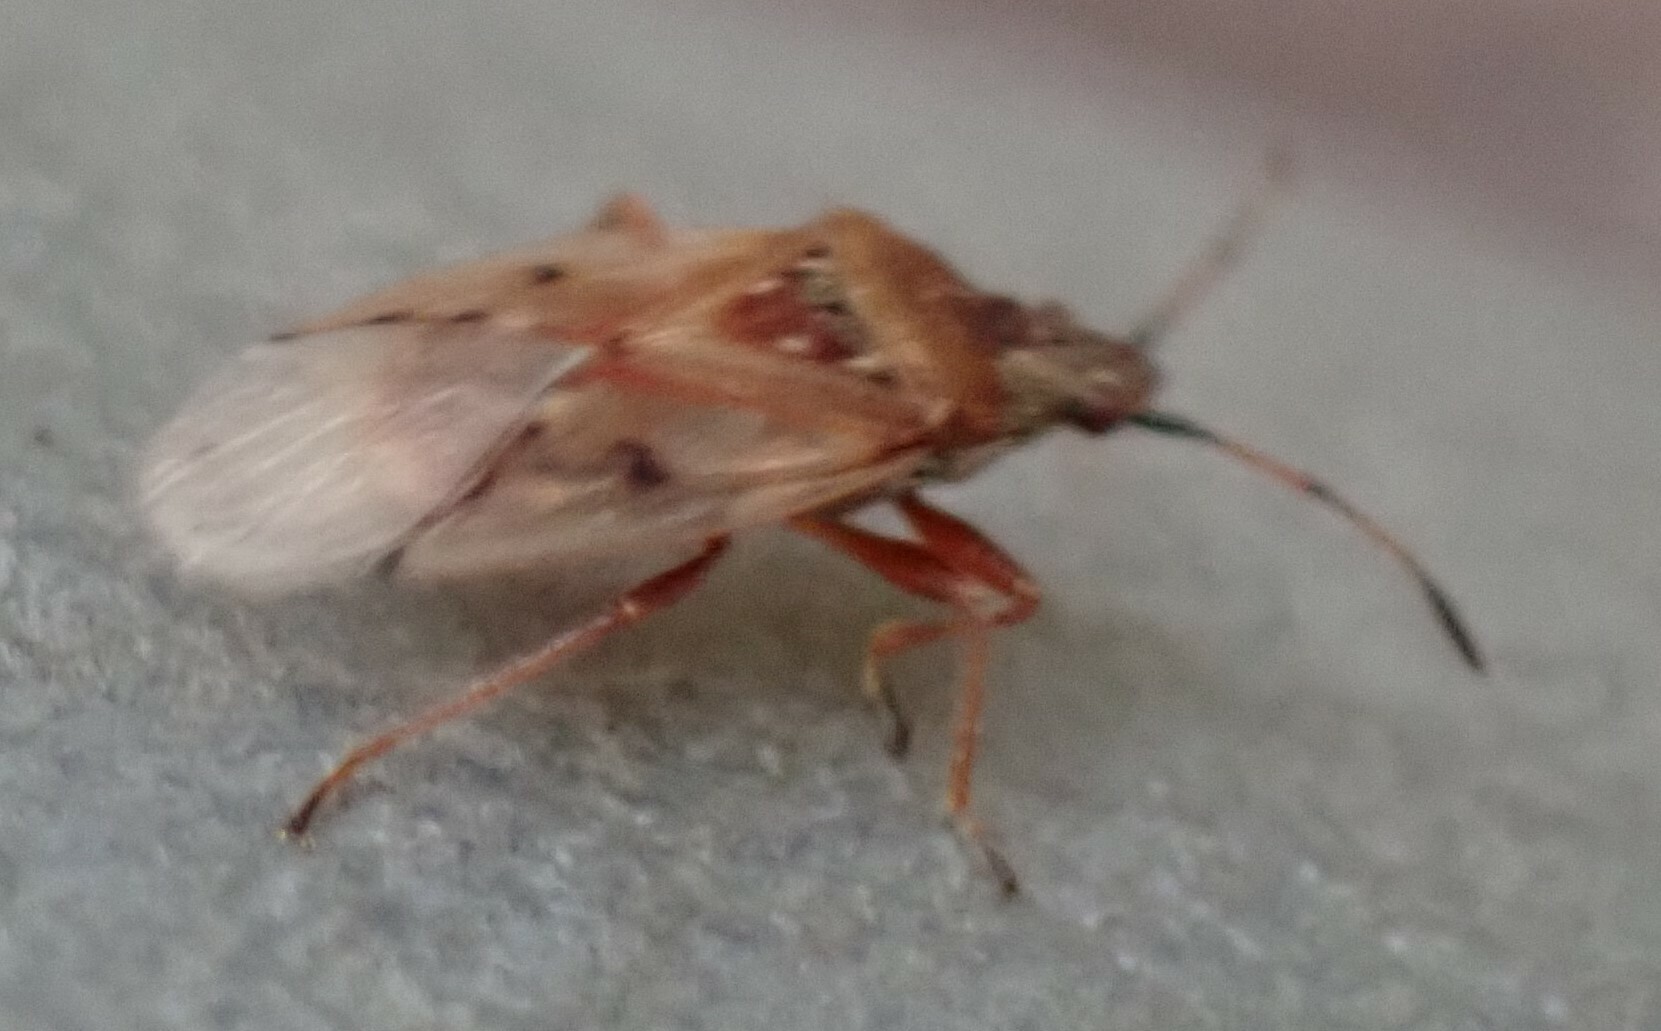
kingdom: Animalia
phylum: Arthropoda
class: Insecta
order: Hemiptera
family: Lygaeidae
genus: Kleidocerys
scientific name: Kleidocerys resedae
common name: Birch catkin bug
